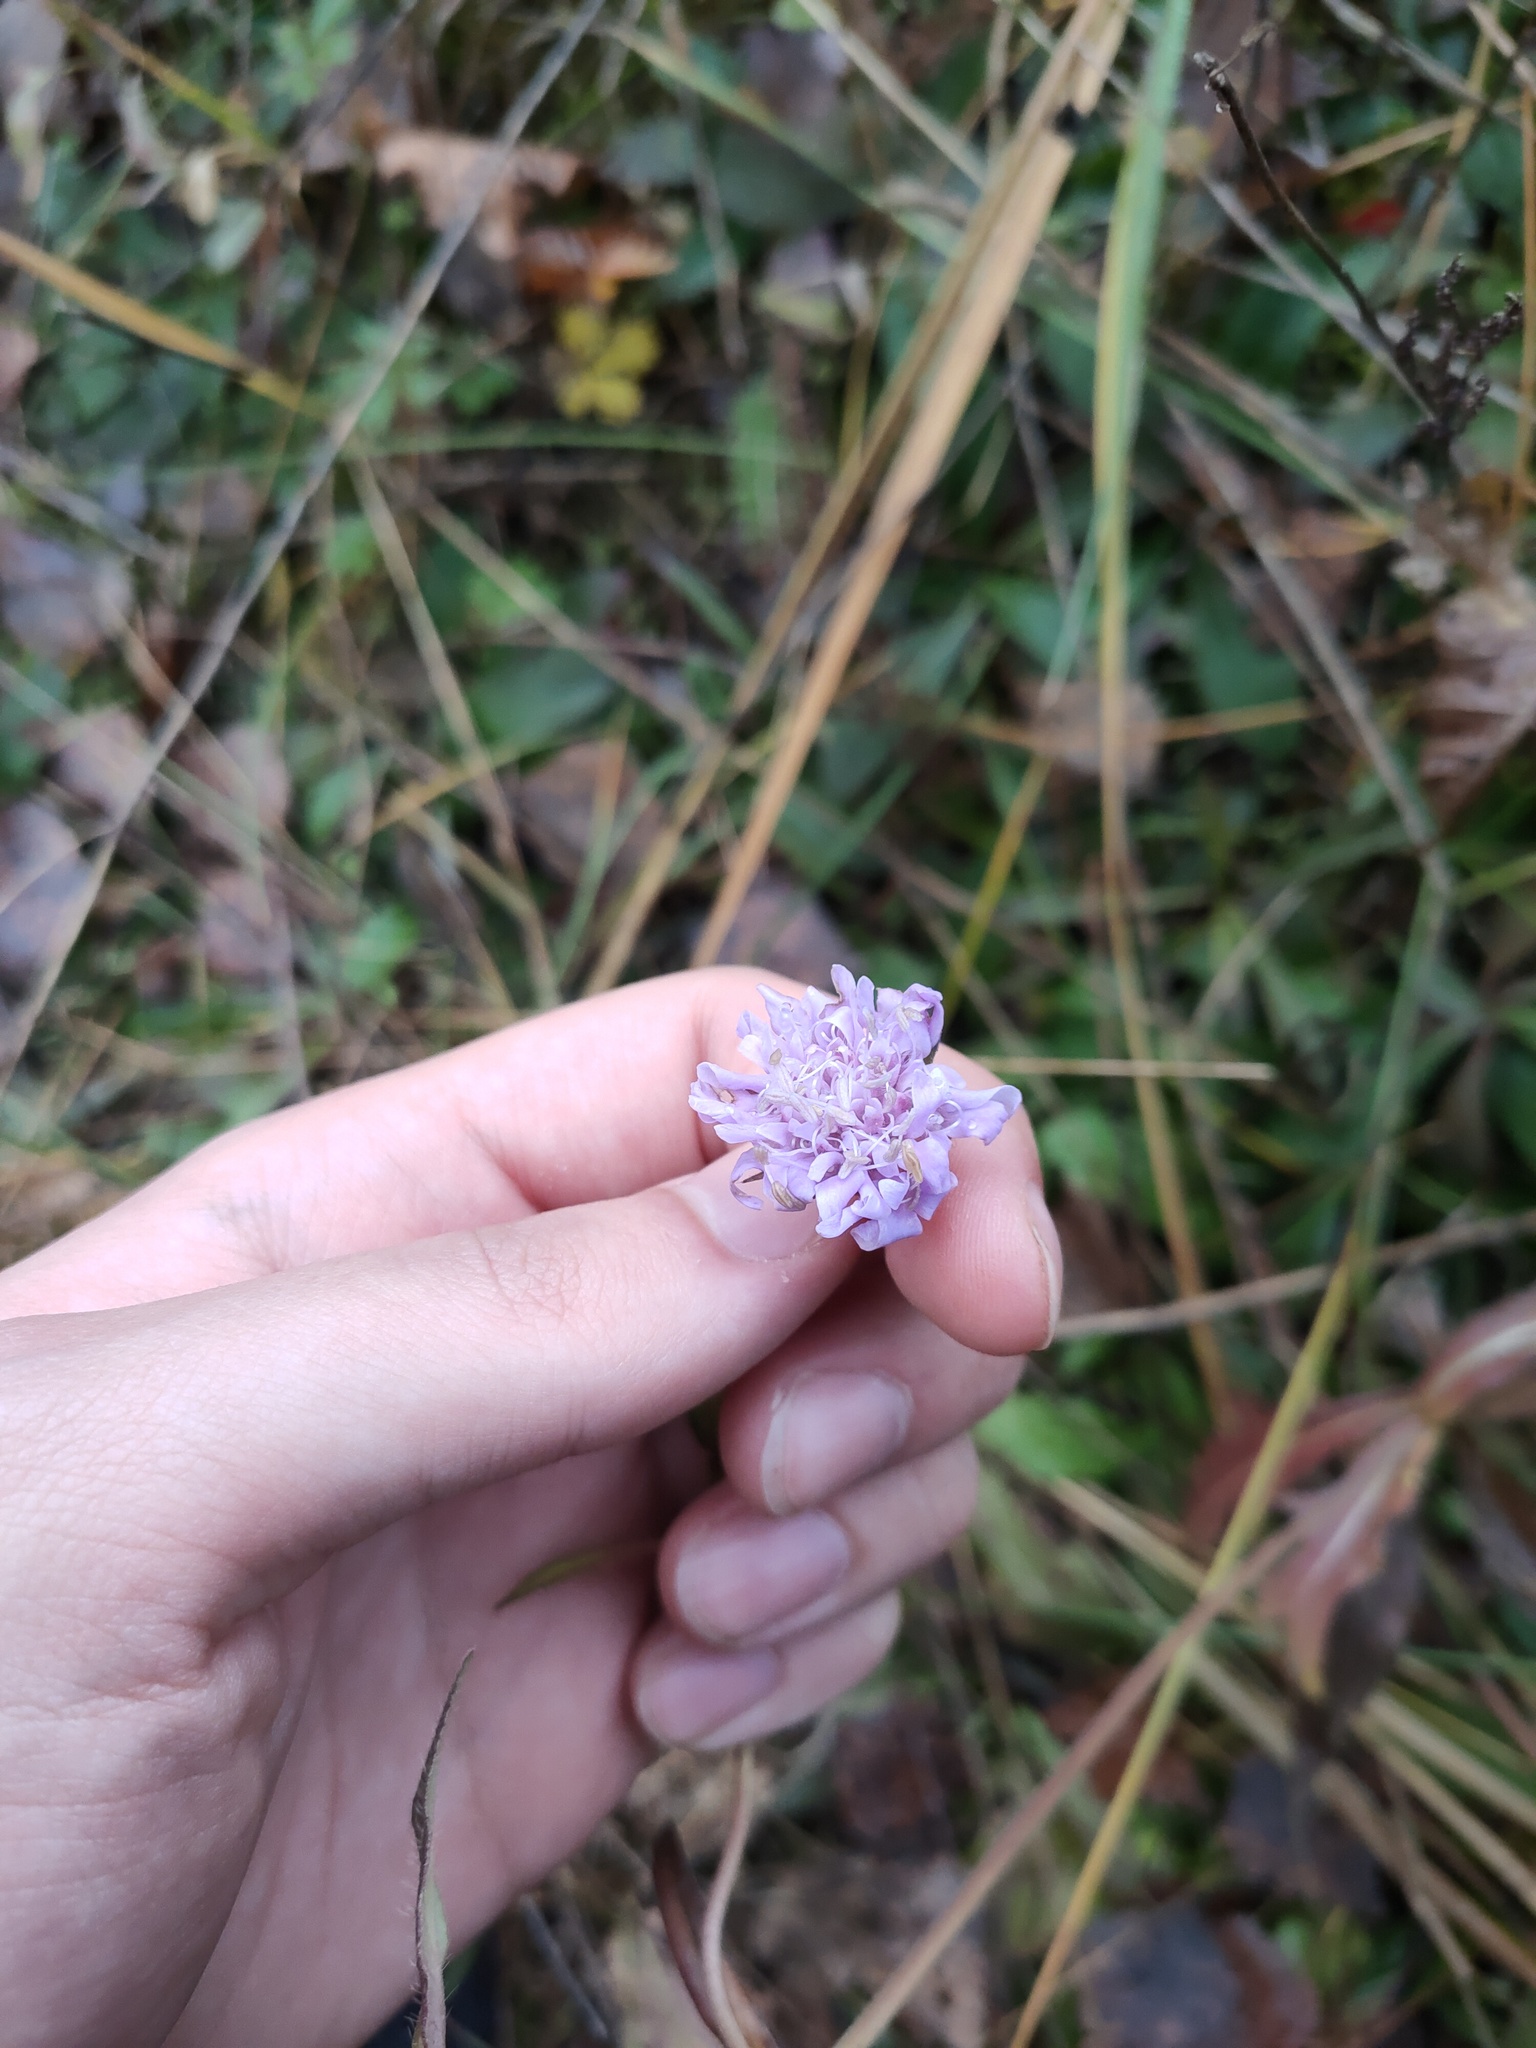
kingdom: Plantae
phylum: Tracheophyta
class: Magnoliopsida
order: Dipsacales
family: Caprifoliaceae
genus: Knautia
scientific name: Knautia arvensis
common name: Field scabiosa
